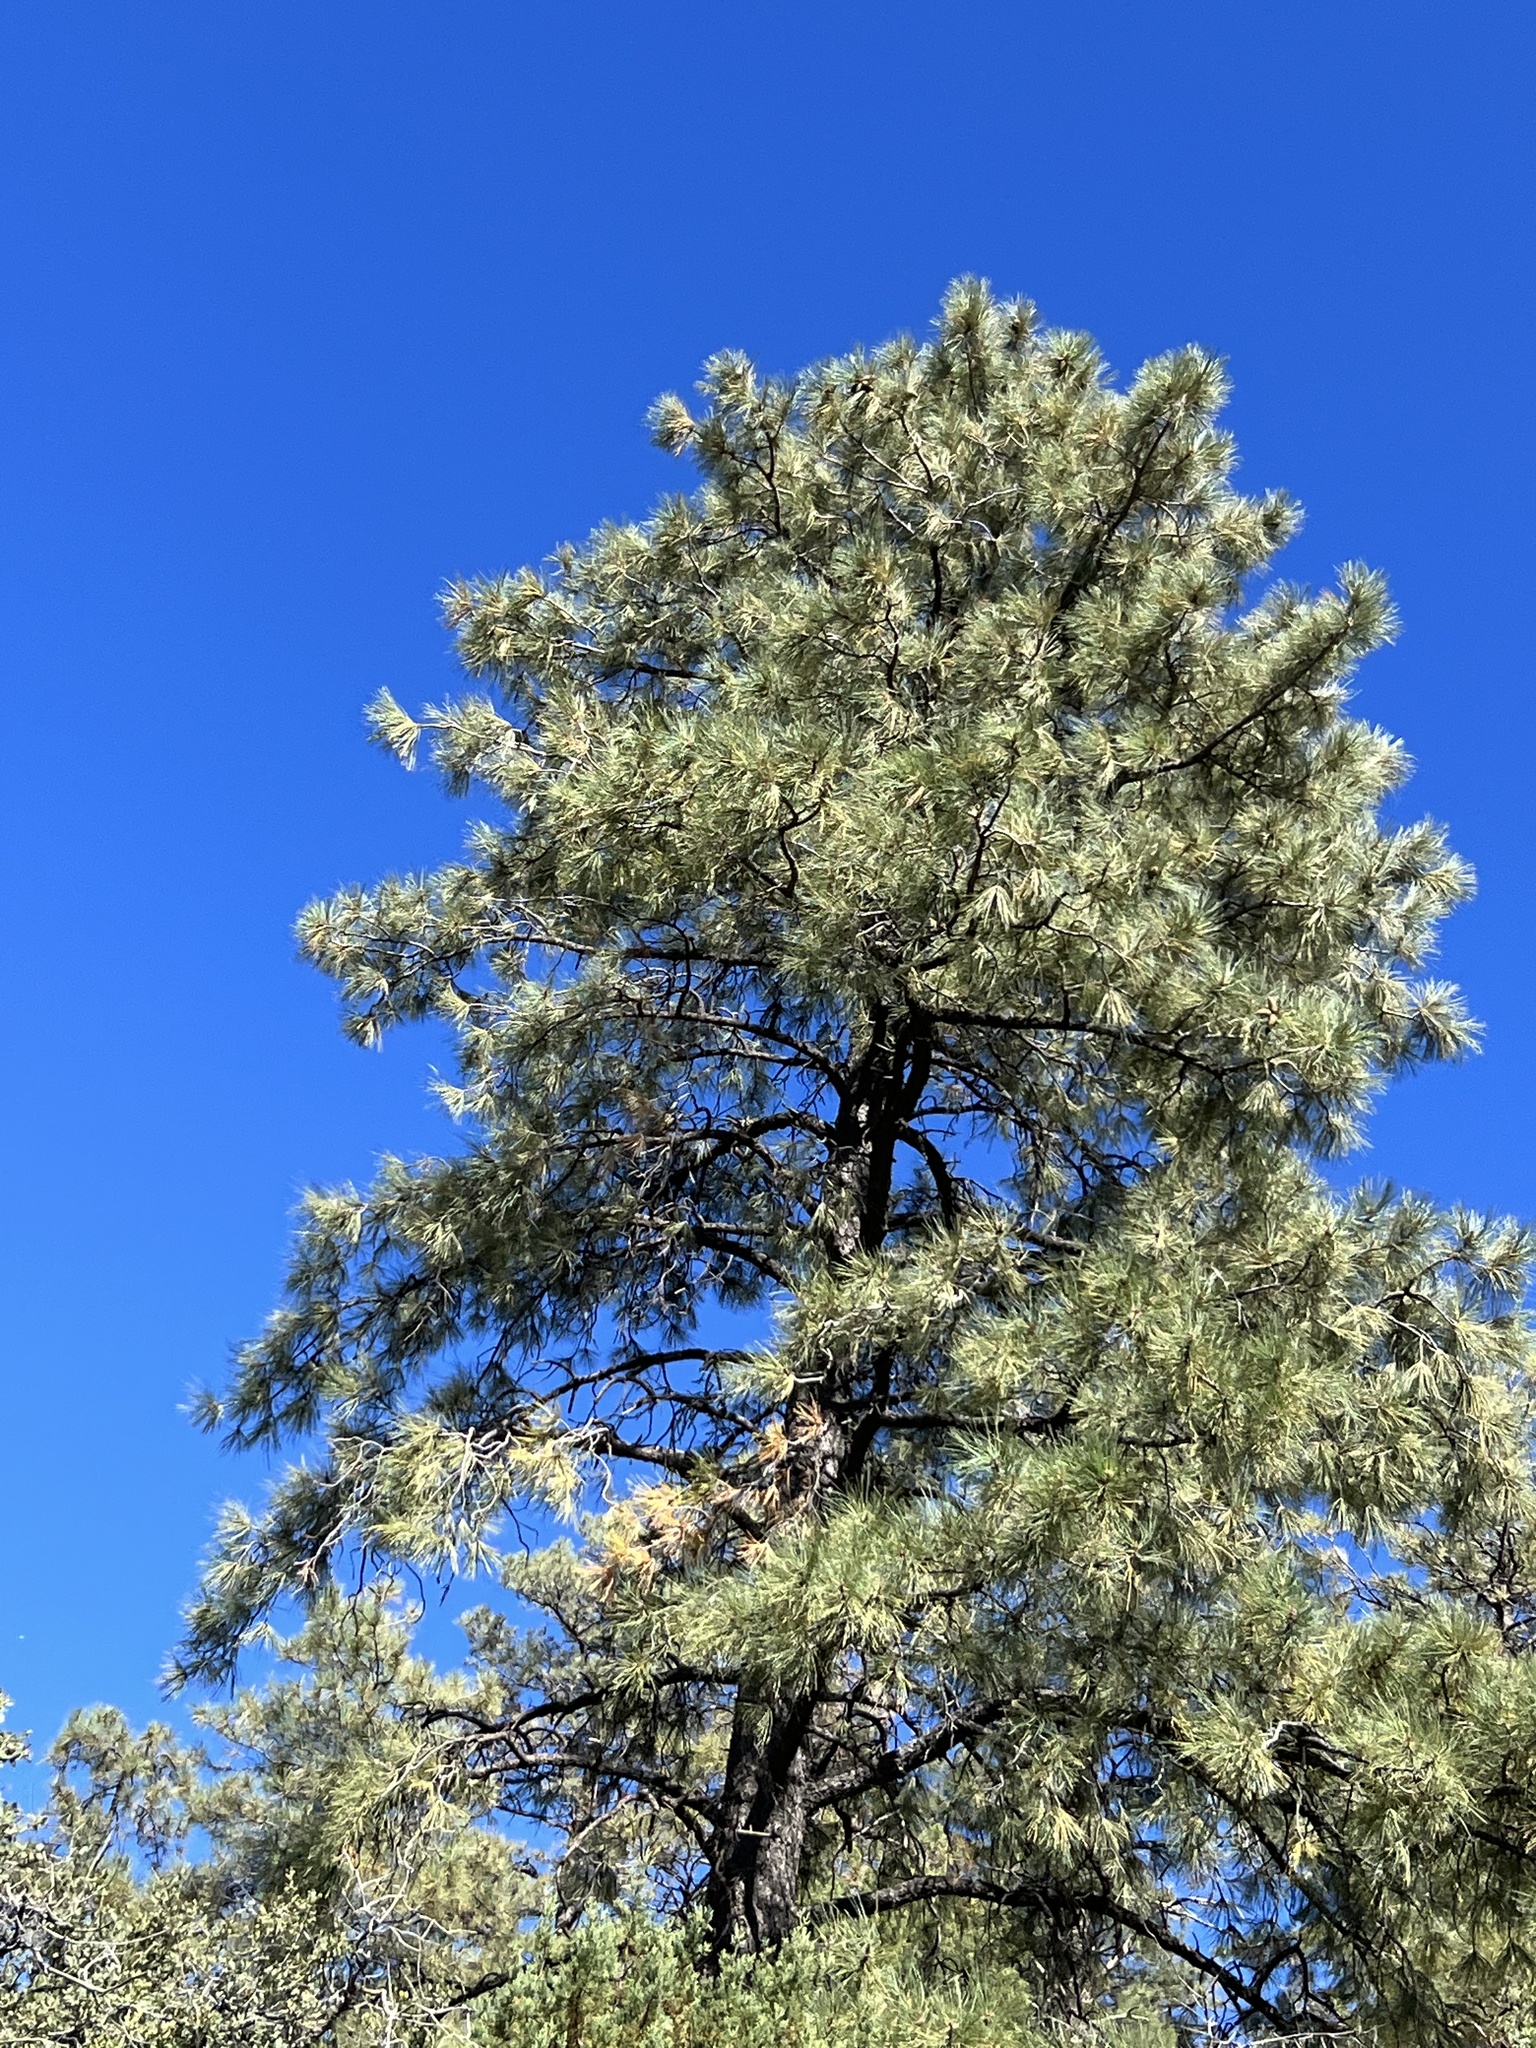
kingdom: Plantae
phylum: Tracheophyta
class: Pinopsida
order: Pinales
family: Pinaceae
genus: Pinus
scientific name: Pinus ponderosa
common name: Western yellow-pine
